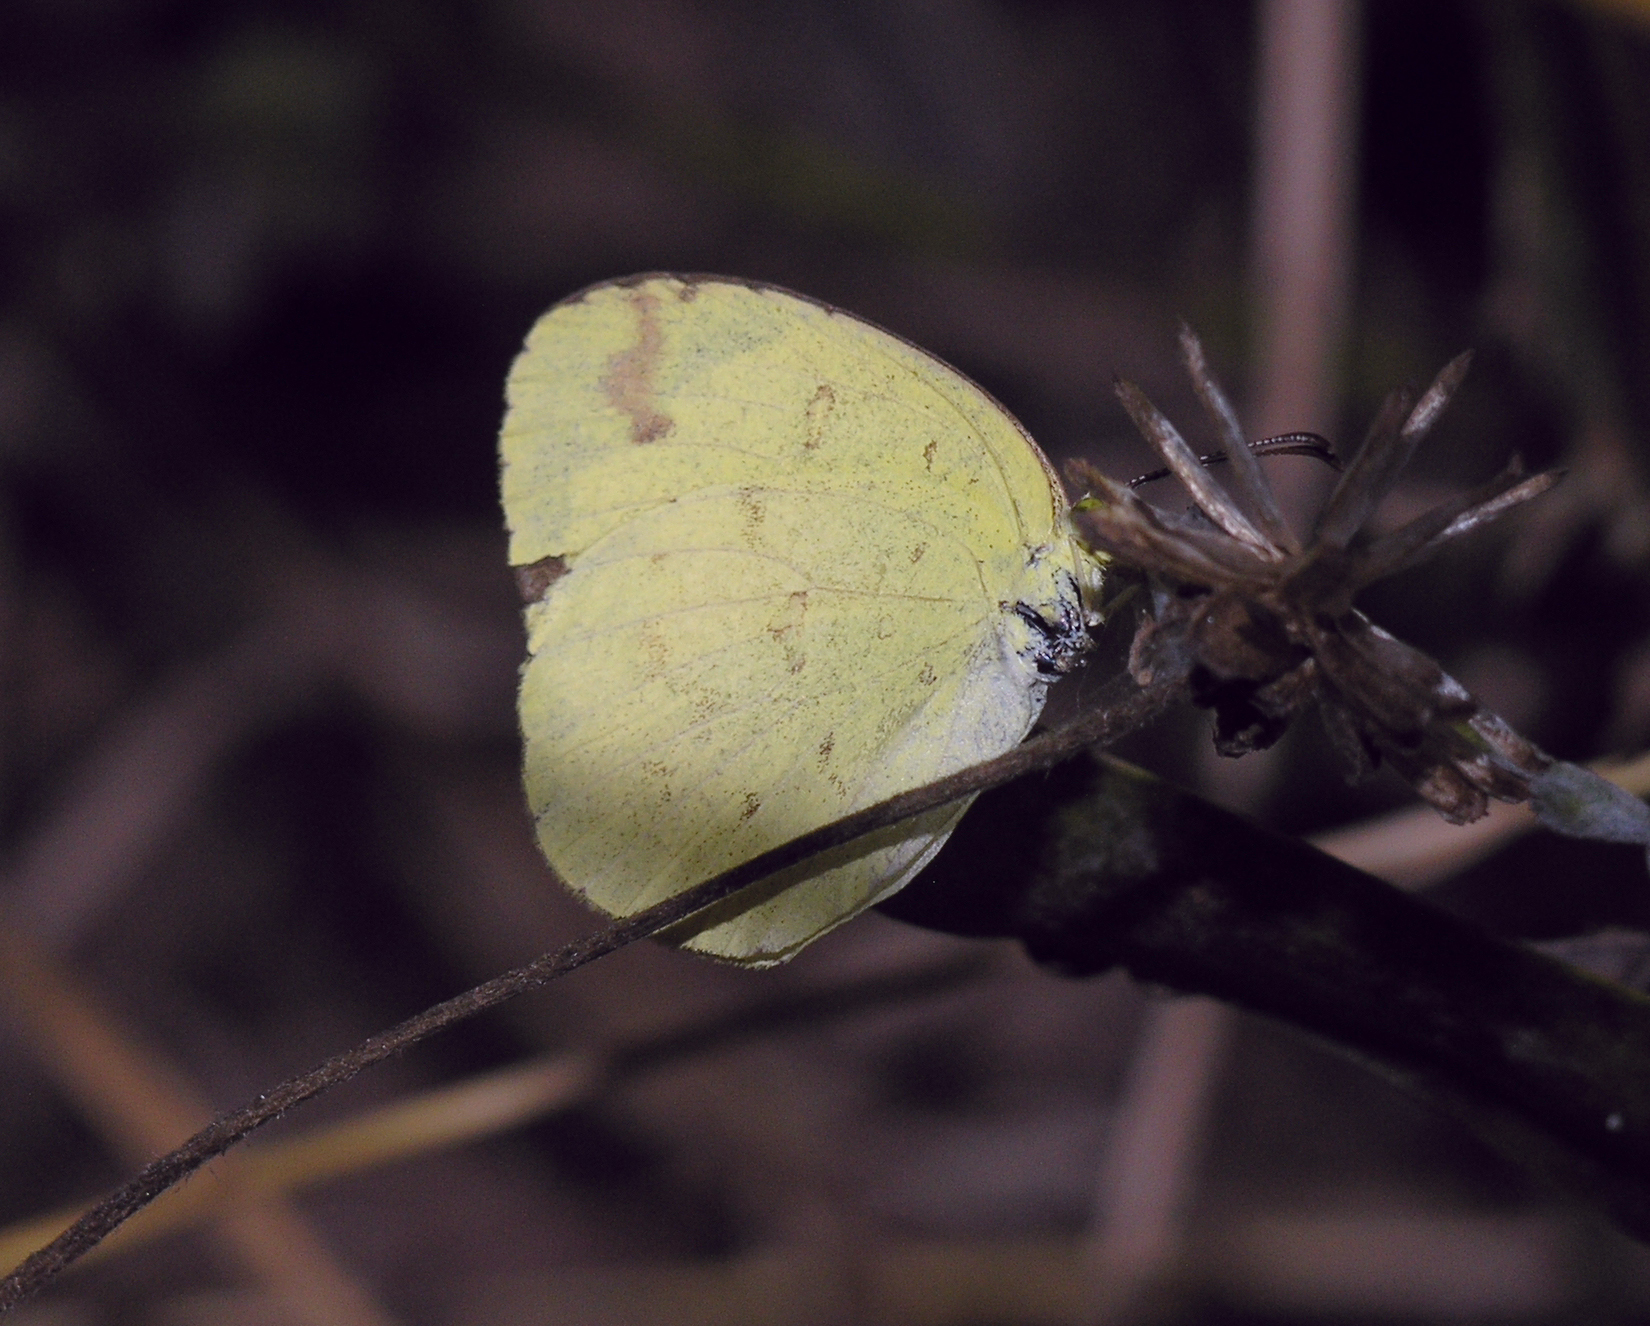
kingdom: Animalia
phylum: Arthropoda
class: Insecta
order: Lepidoptera
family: Pieridae
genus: Eurema
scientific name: Eurema hecabe
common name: Pale grass yellow
